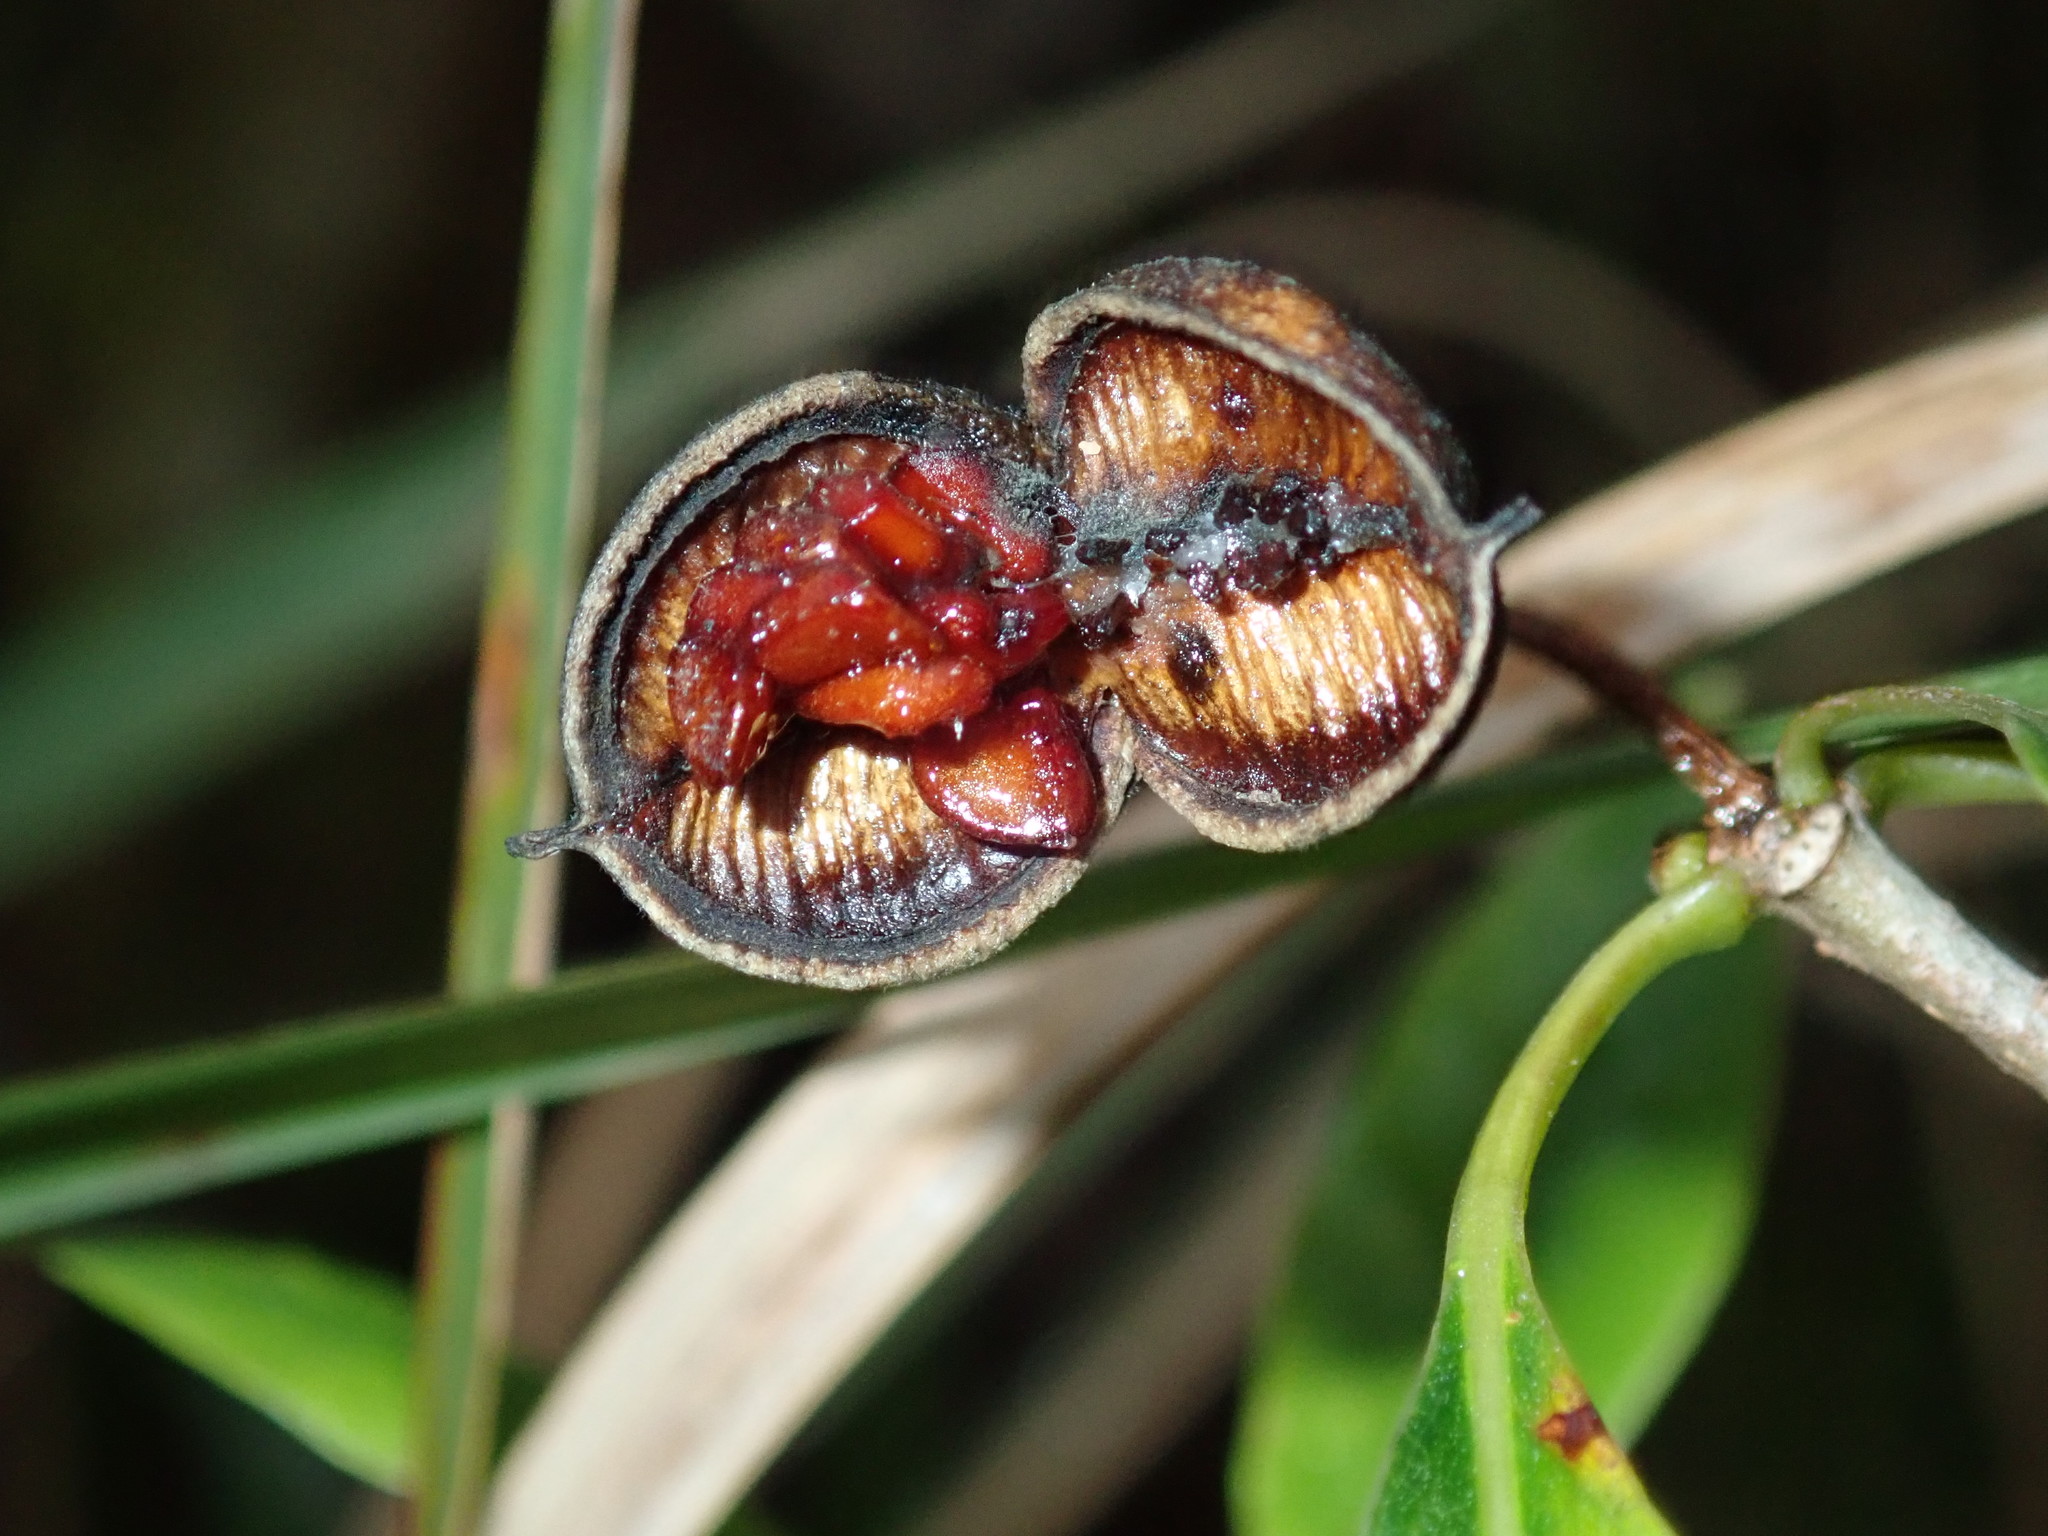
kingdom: Plantae
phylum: Tracheophyta
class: Magnoliopsida
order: Apiales
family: Pittosporaceae
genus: Pittosporum
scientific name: Pittosporum undulatum
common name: Australian cheesewood
